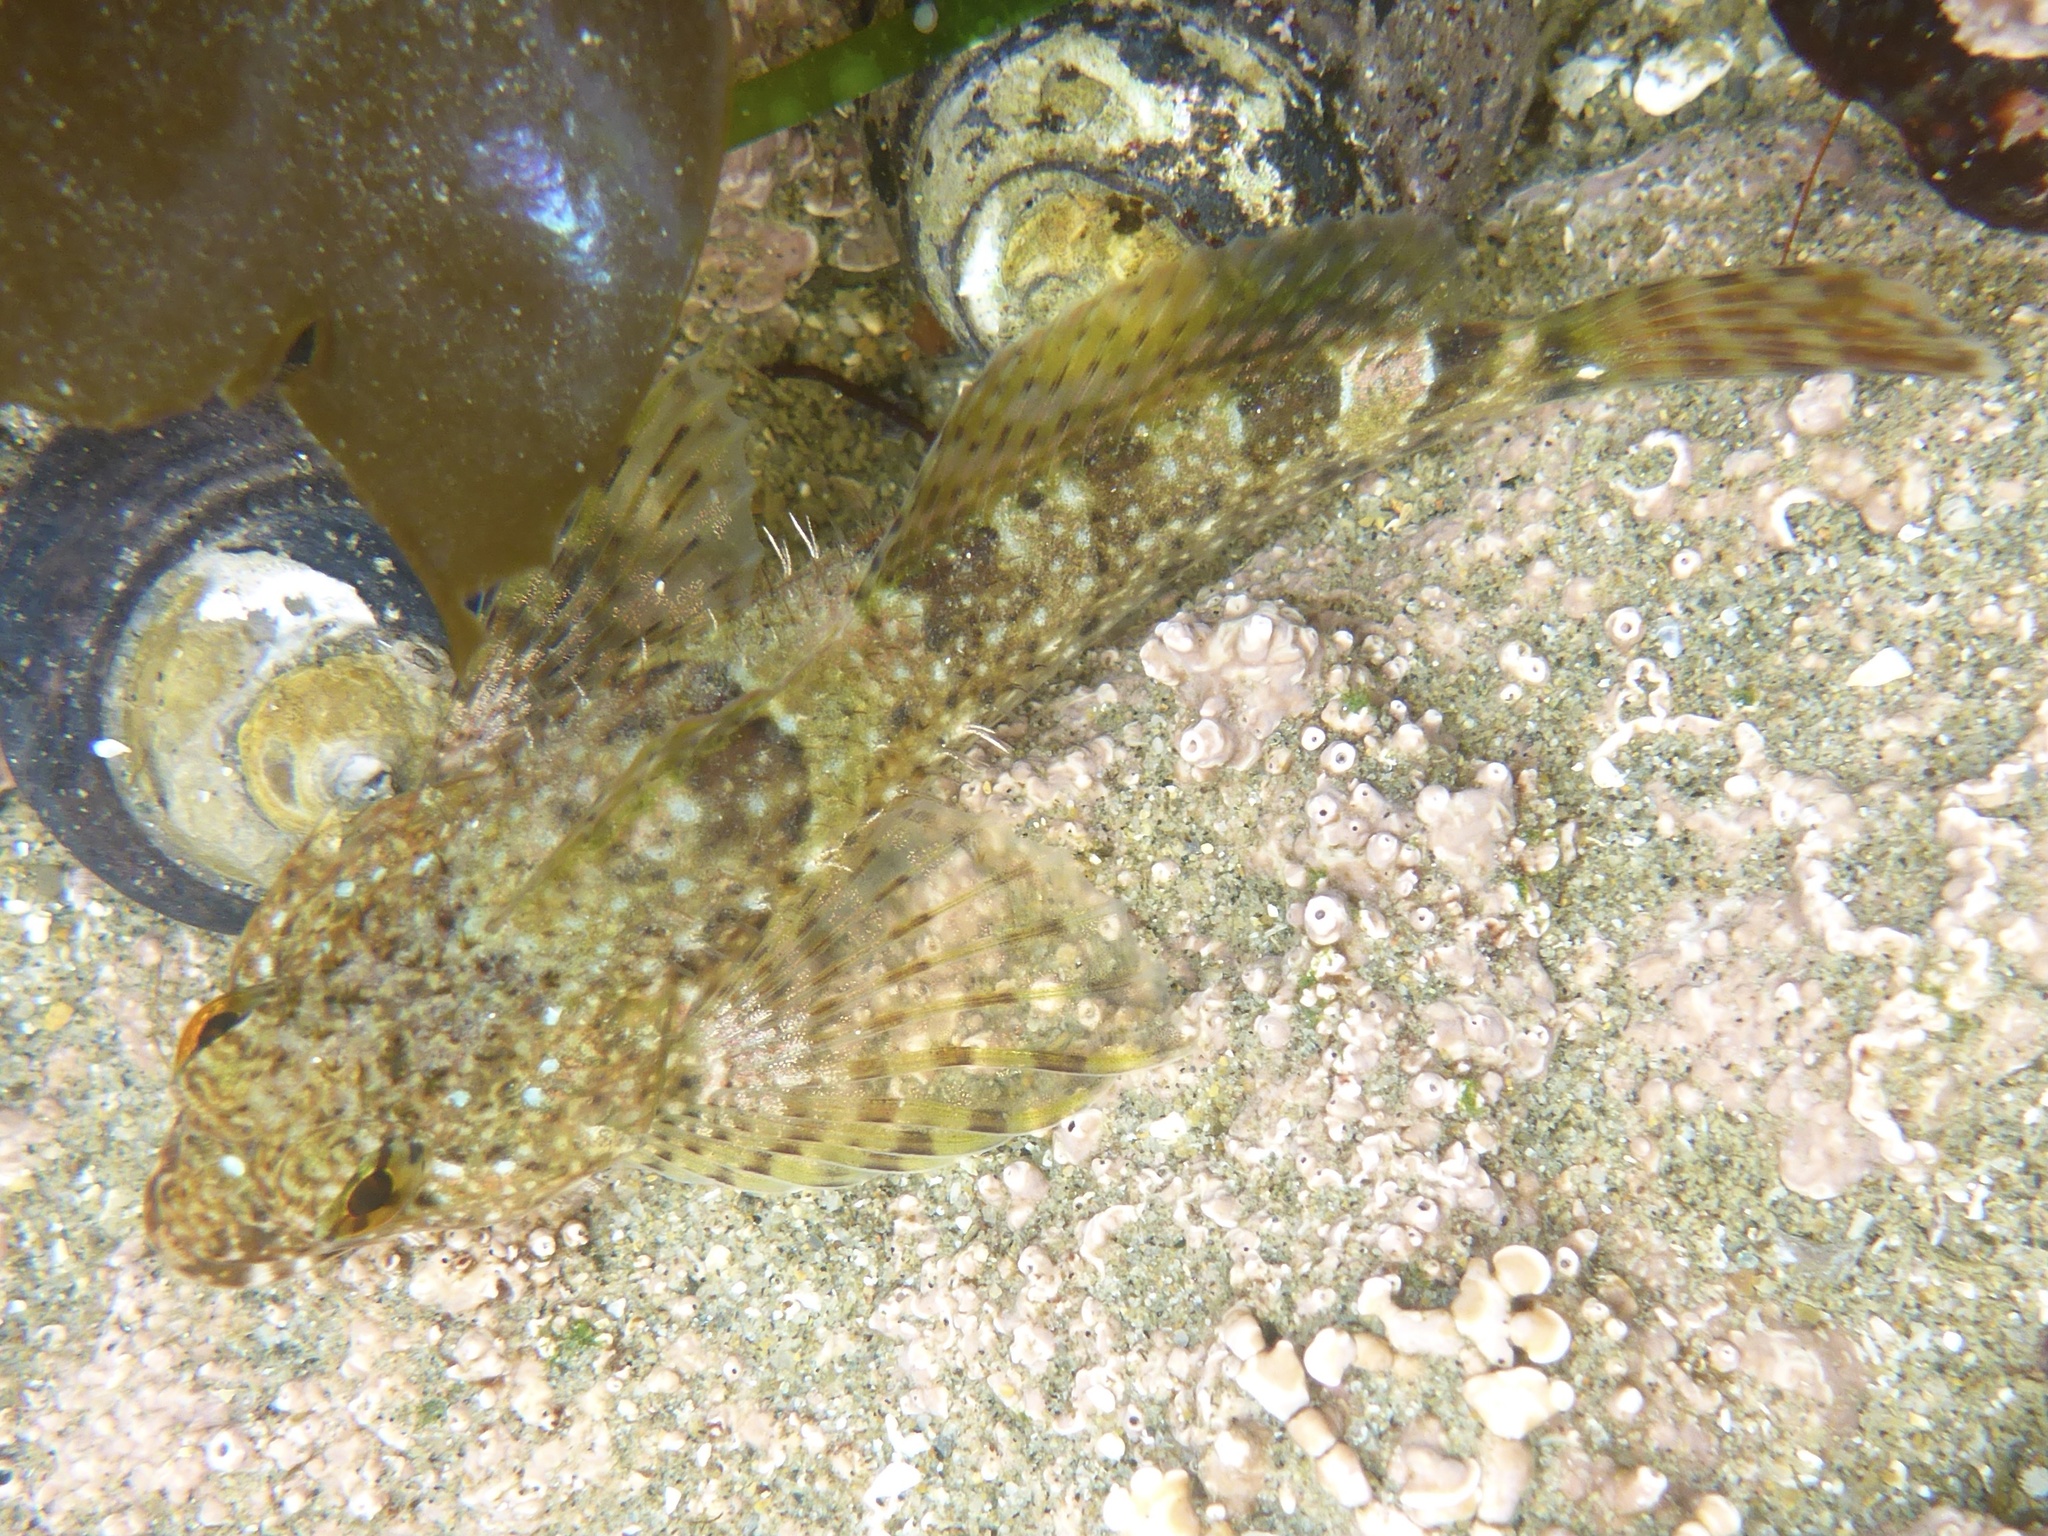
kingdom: Animalia
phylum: Chordata
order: Scorpaeniformes
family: Cottidae
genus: Clinocottus
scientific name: Clinocottus analis
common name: Woolly sculpin
